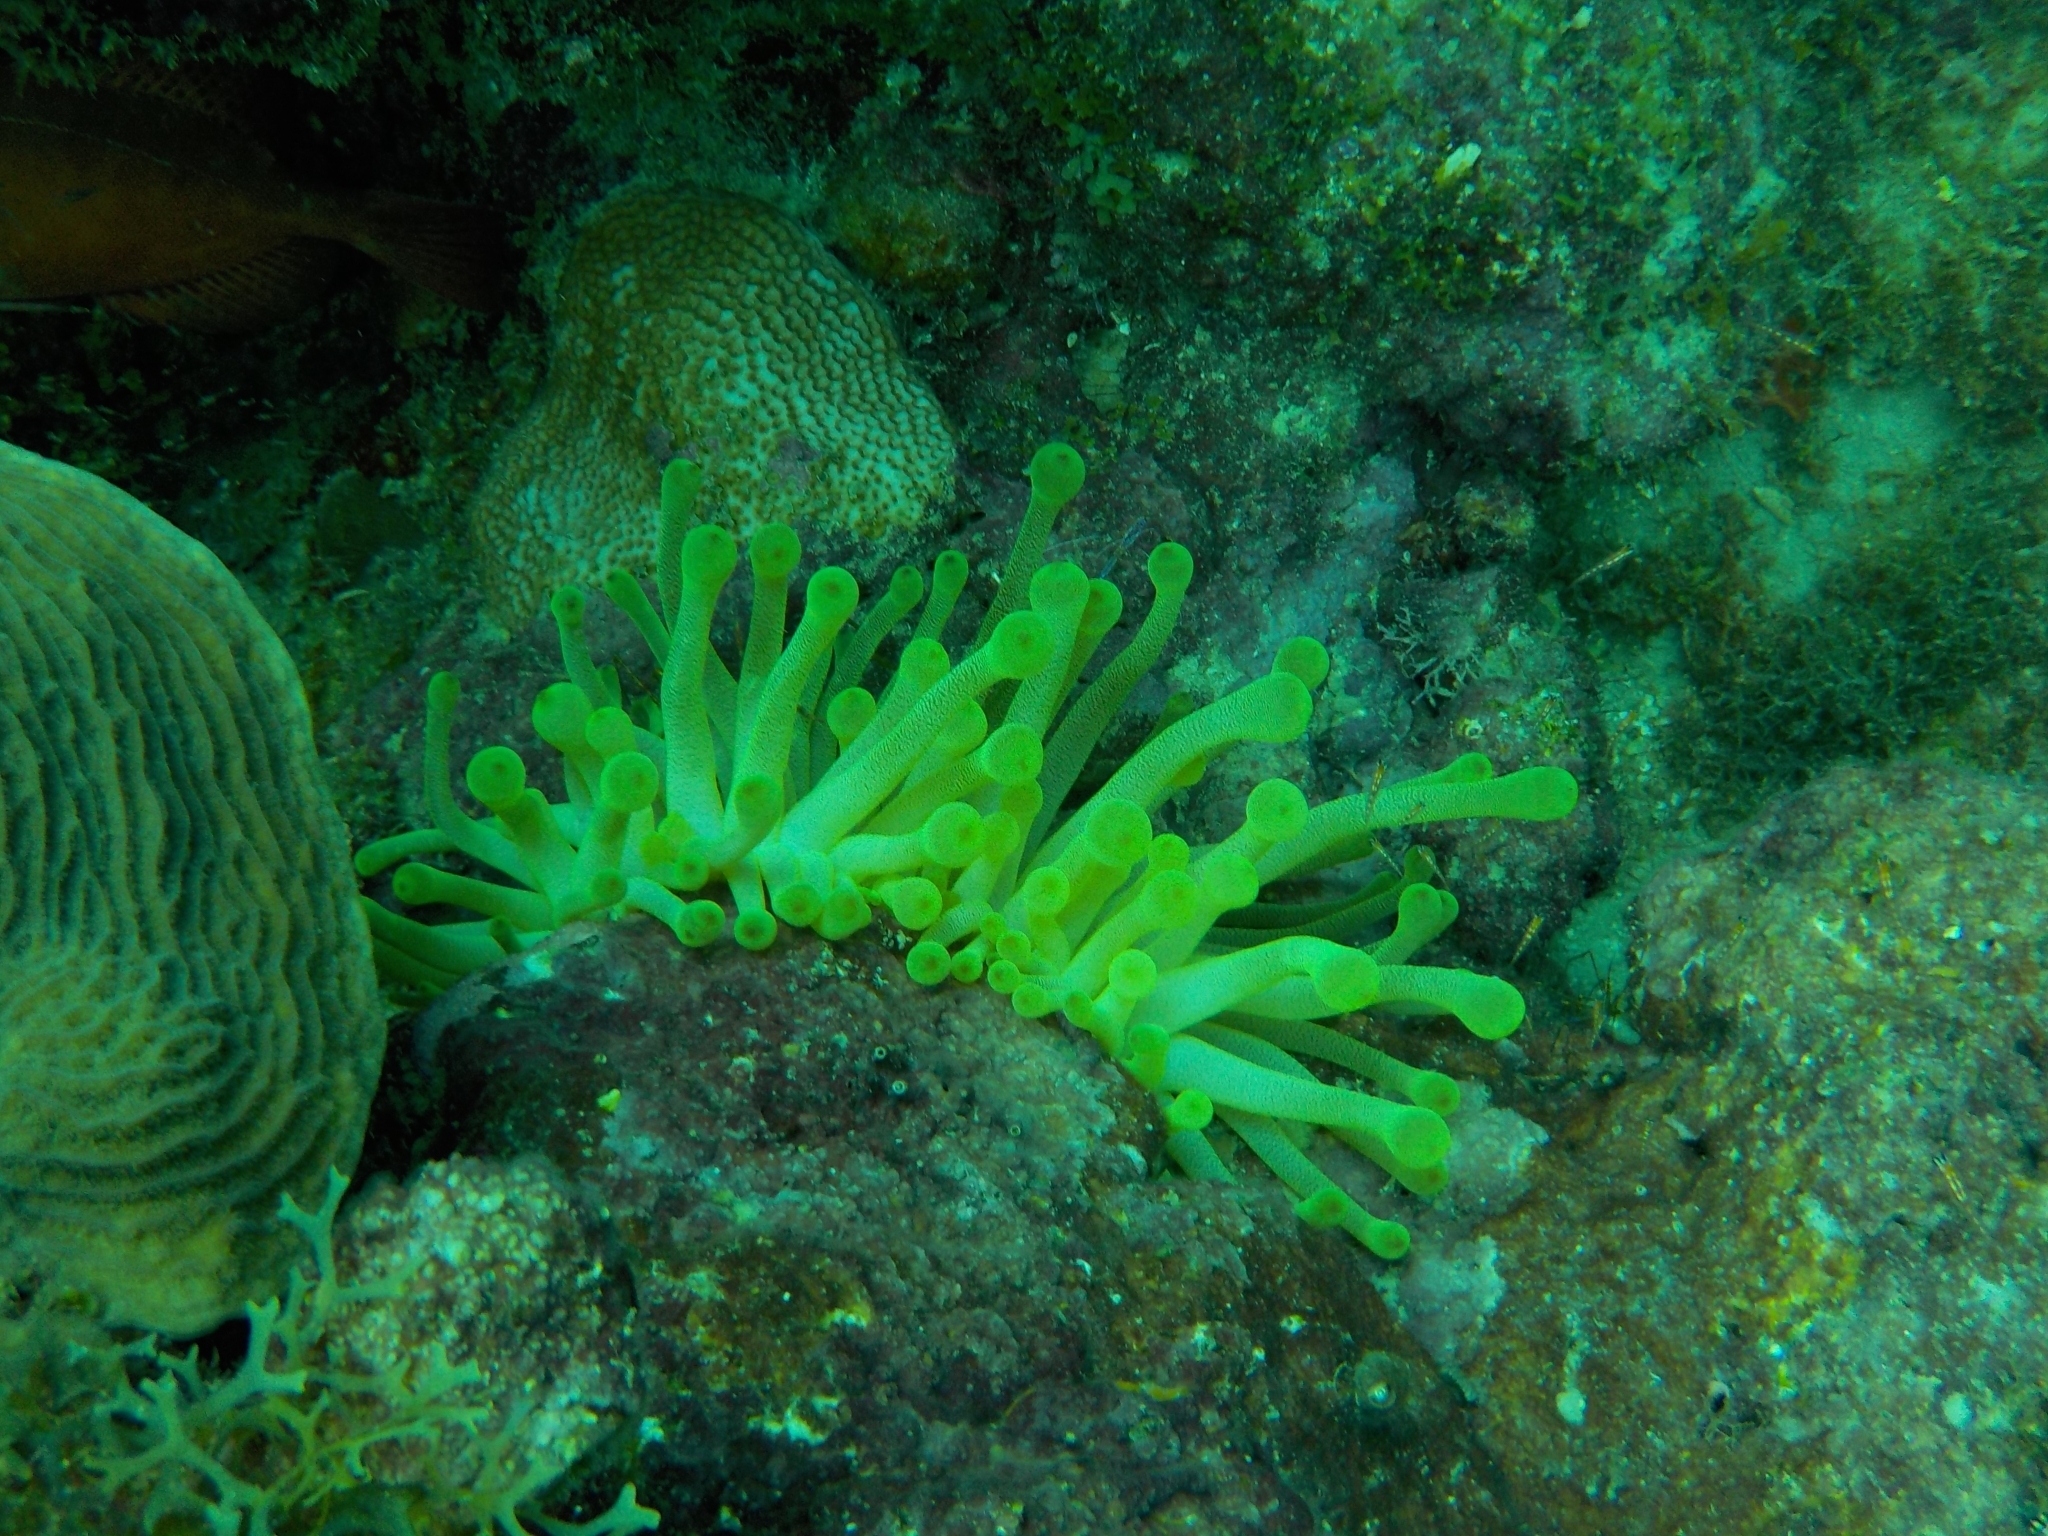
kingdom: Animalia
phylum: Cnidaria
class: Anthozoa
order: Actiniaria
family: Actiniidae
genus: Condylactis
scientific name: Condylactis gigantea
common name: Giant caribbean anemone
